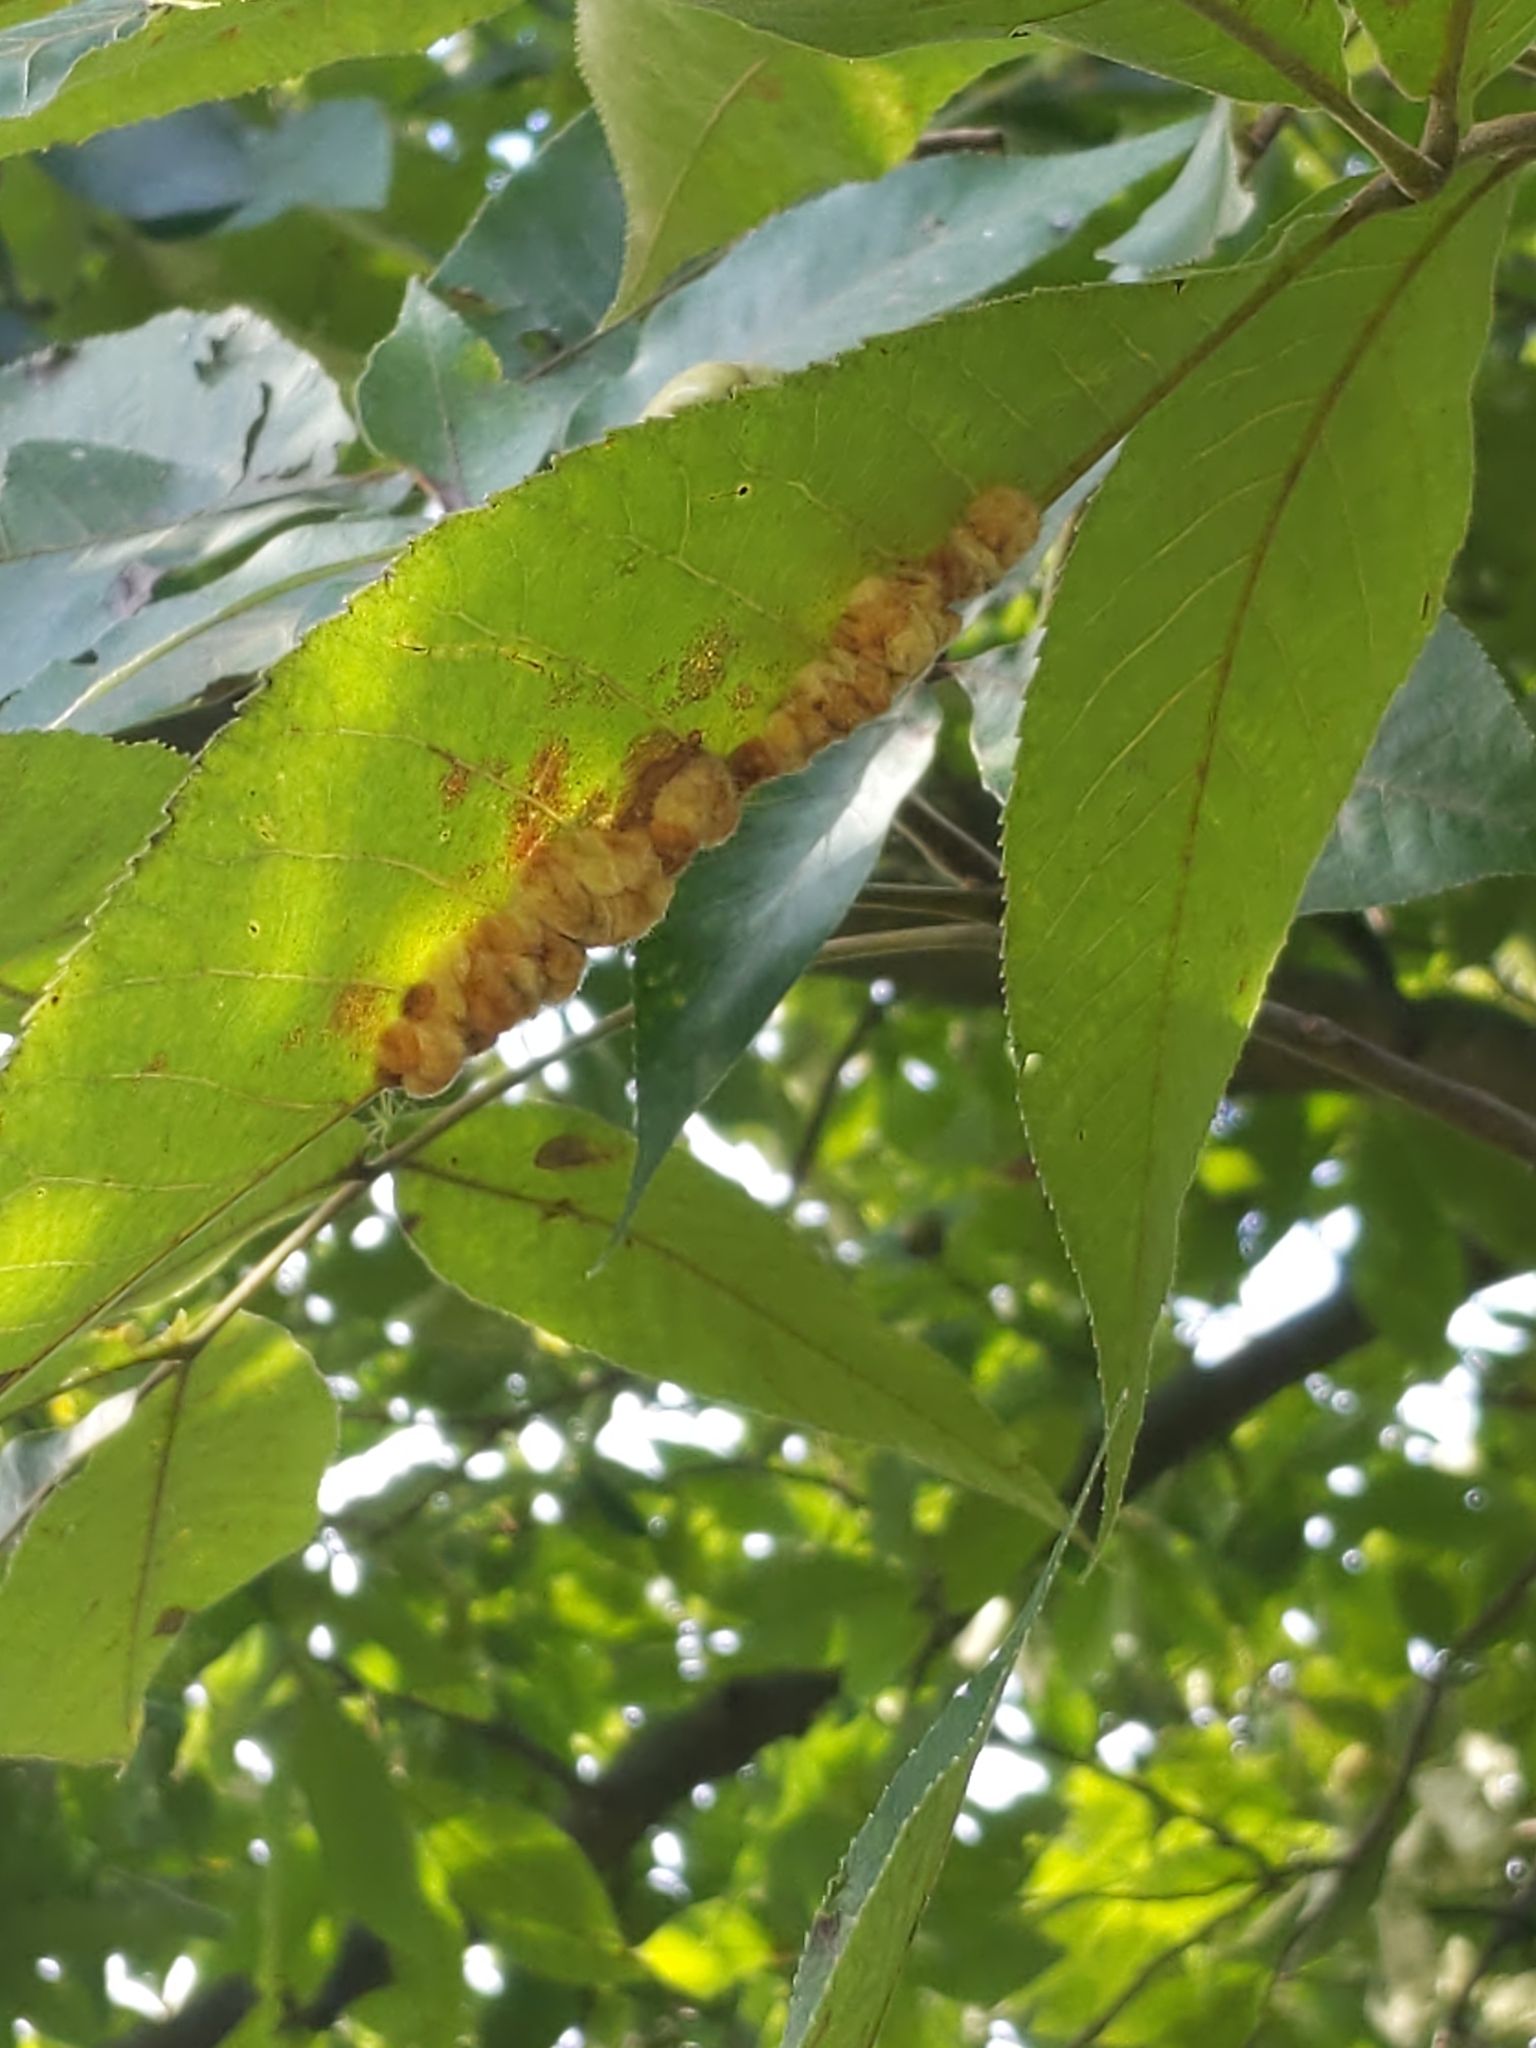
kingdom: Animalia
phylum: Arthropoda
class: Insecta
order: Diptera
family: Cecidomyiidae
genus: Caryomyia
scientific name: Caryomyia aggregata
